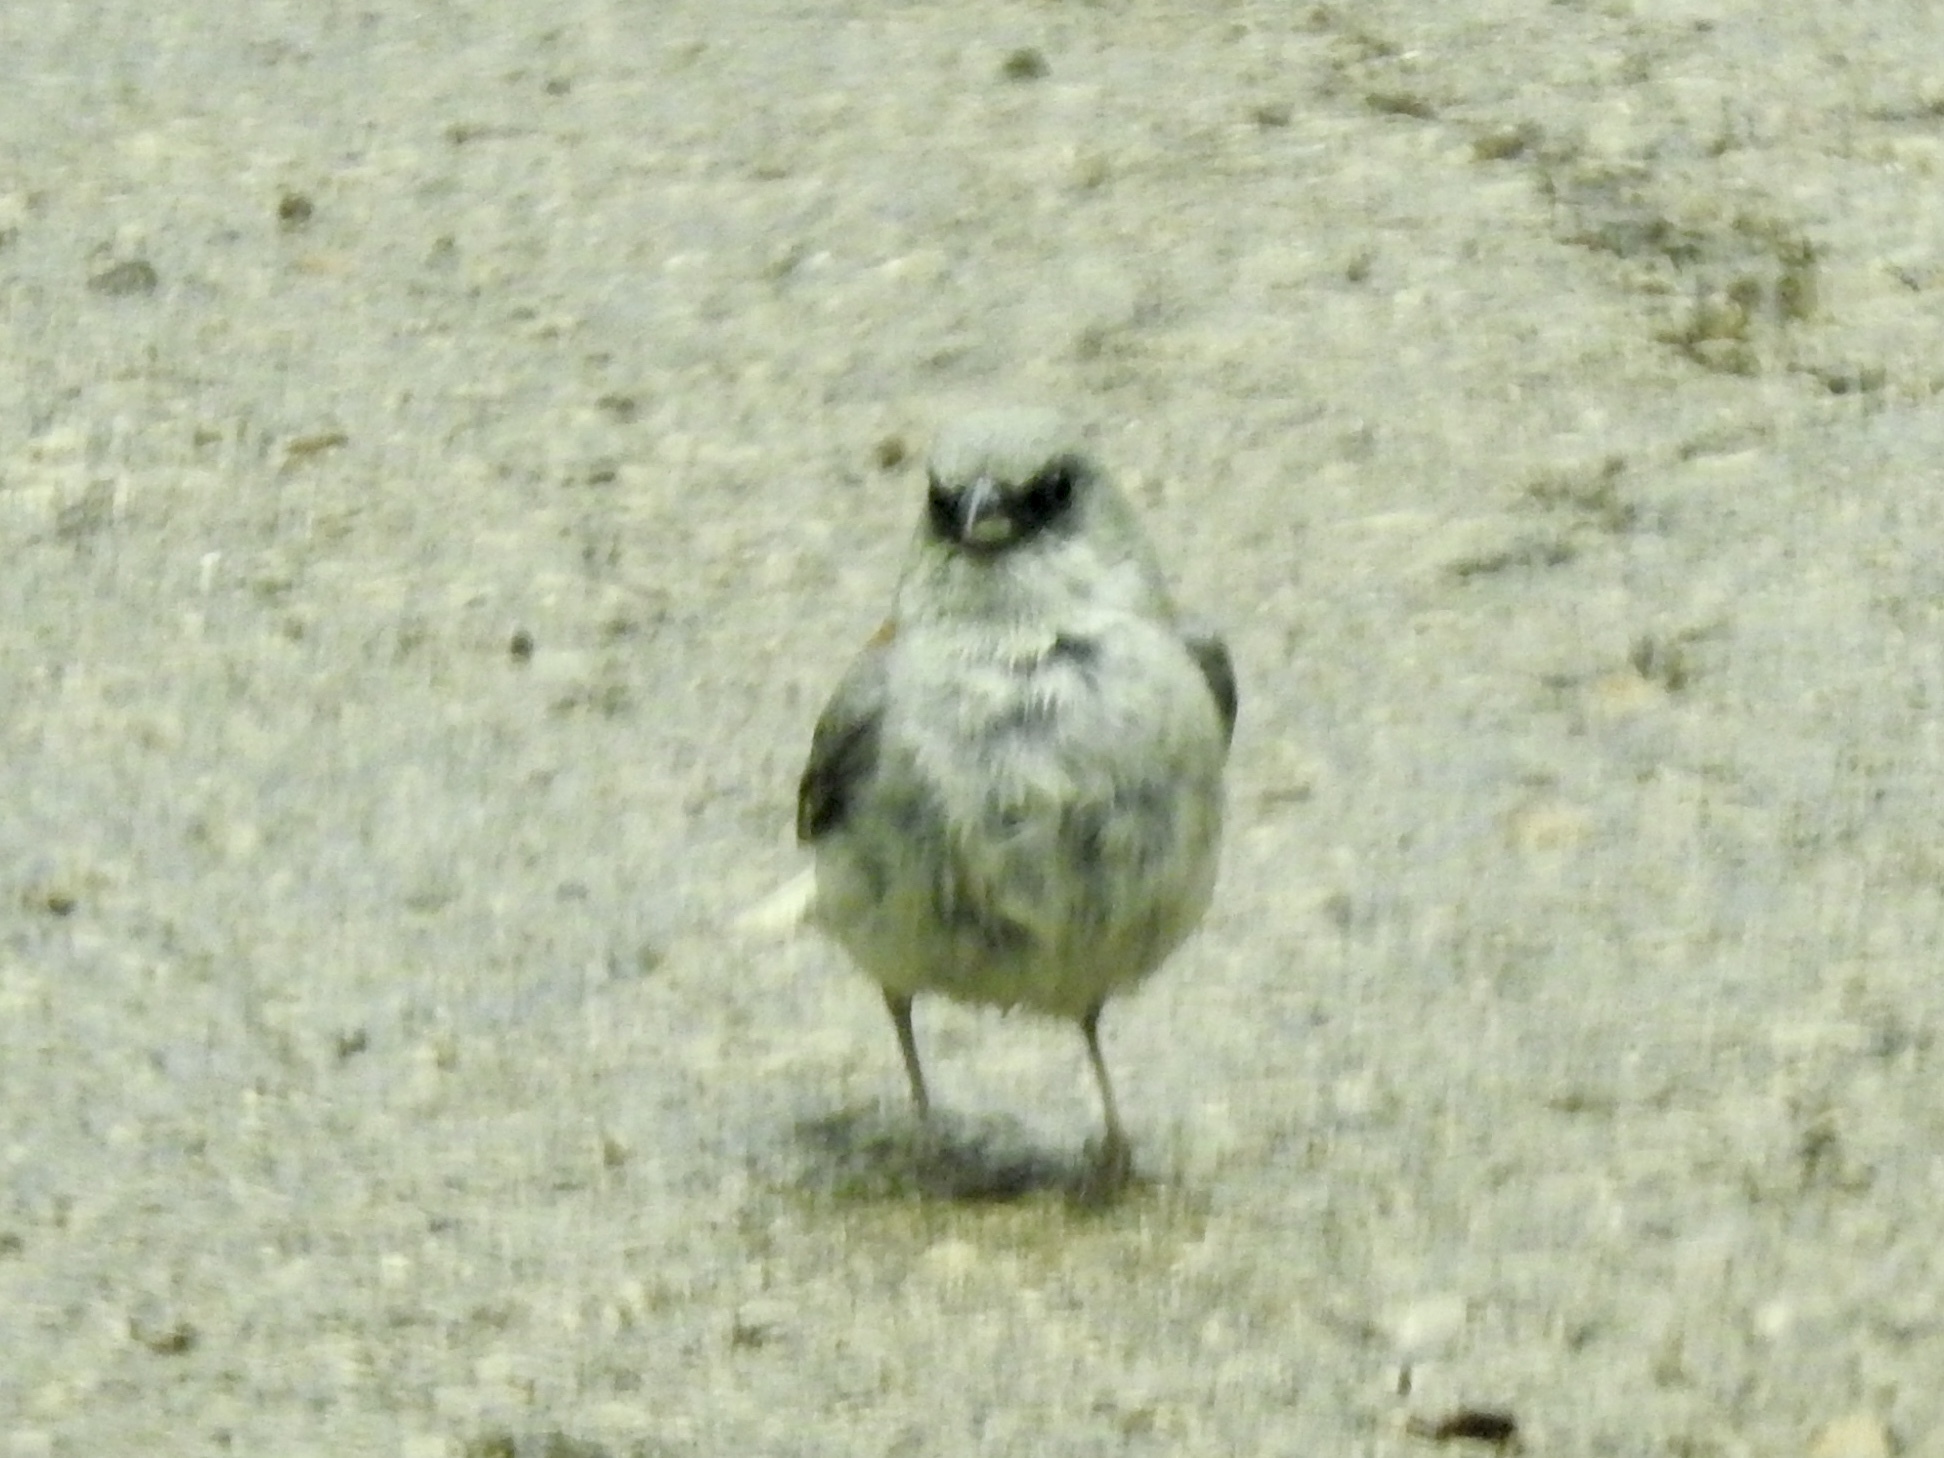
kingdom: Animalia
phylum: Chordata
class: Aves
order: Passeriformes
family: Passerellidae
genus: Junco
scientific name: Junco hyemalis
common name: Dark-eyed junco
